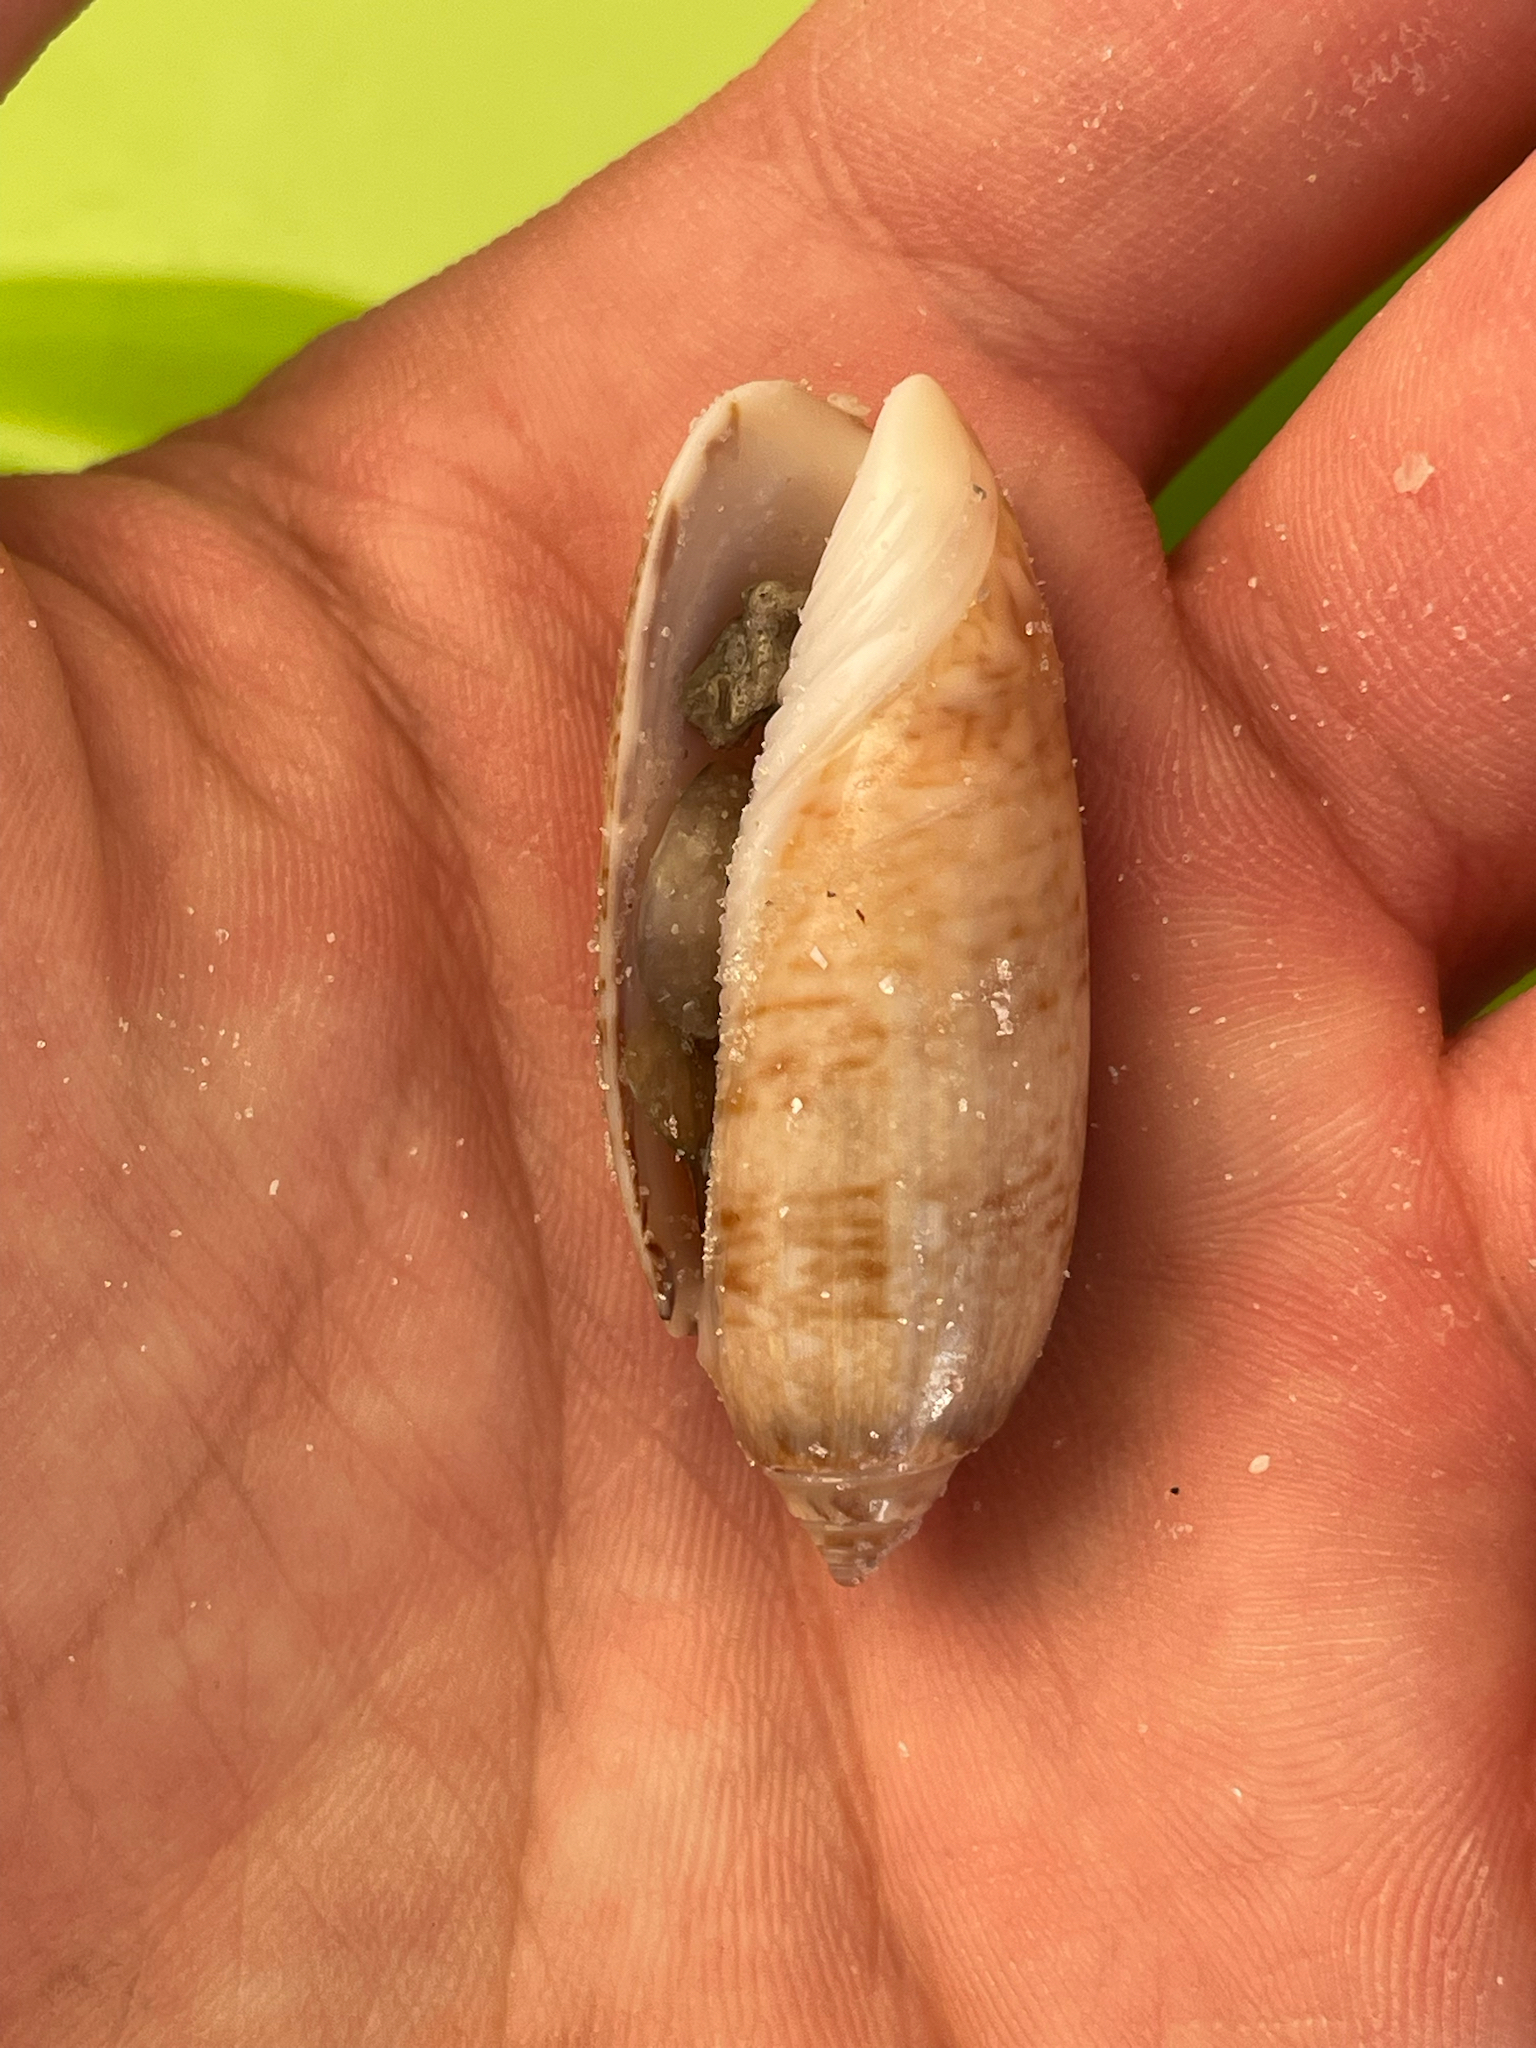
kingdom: Animalia
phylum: Mollusca
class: Gastropoda
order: Neogastropoda
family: Olividae
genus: Oliva
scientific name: Oliva sayana
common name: Lettered olive
